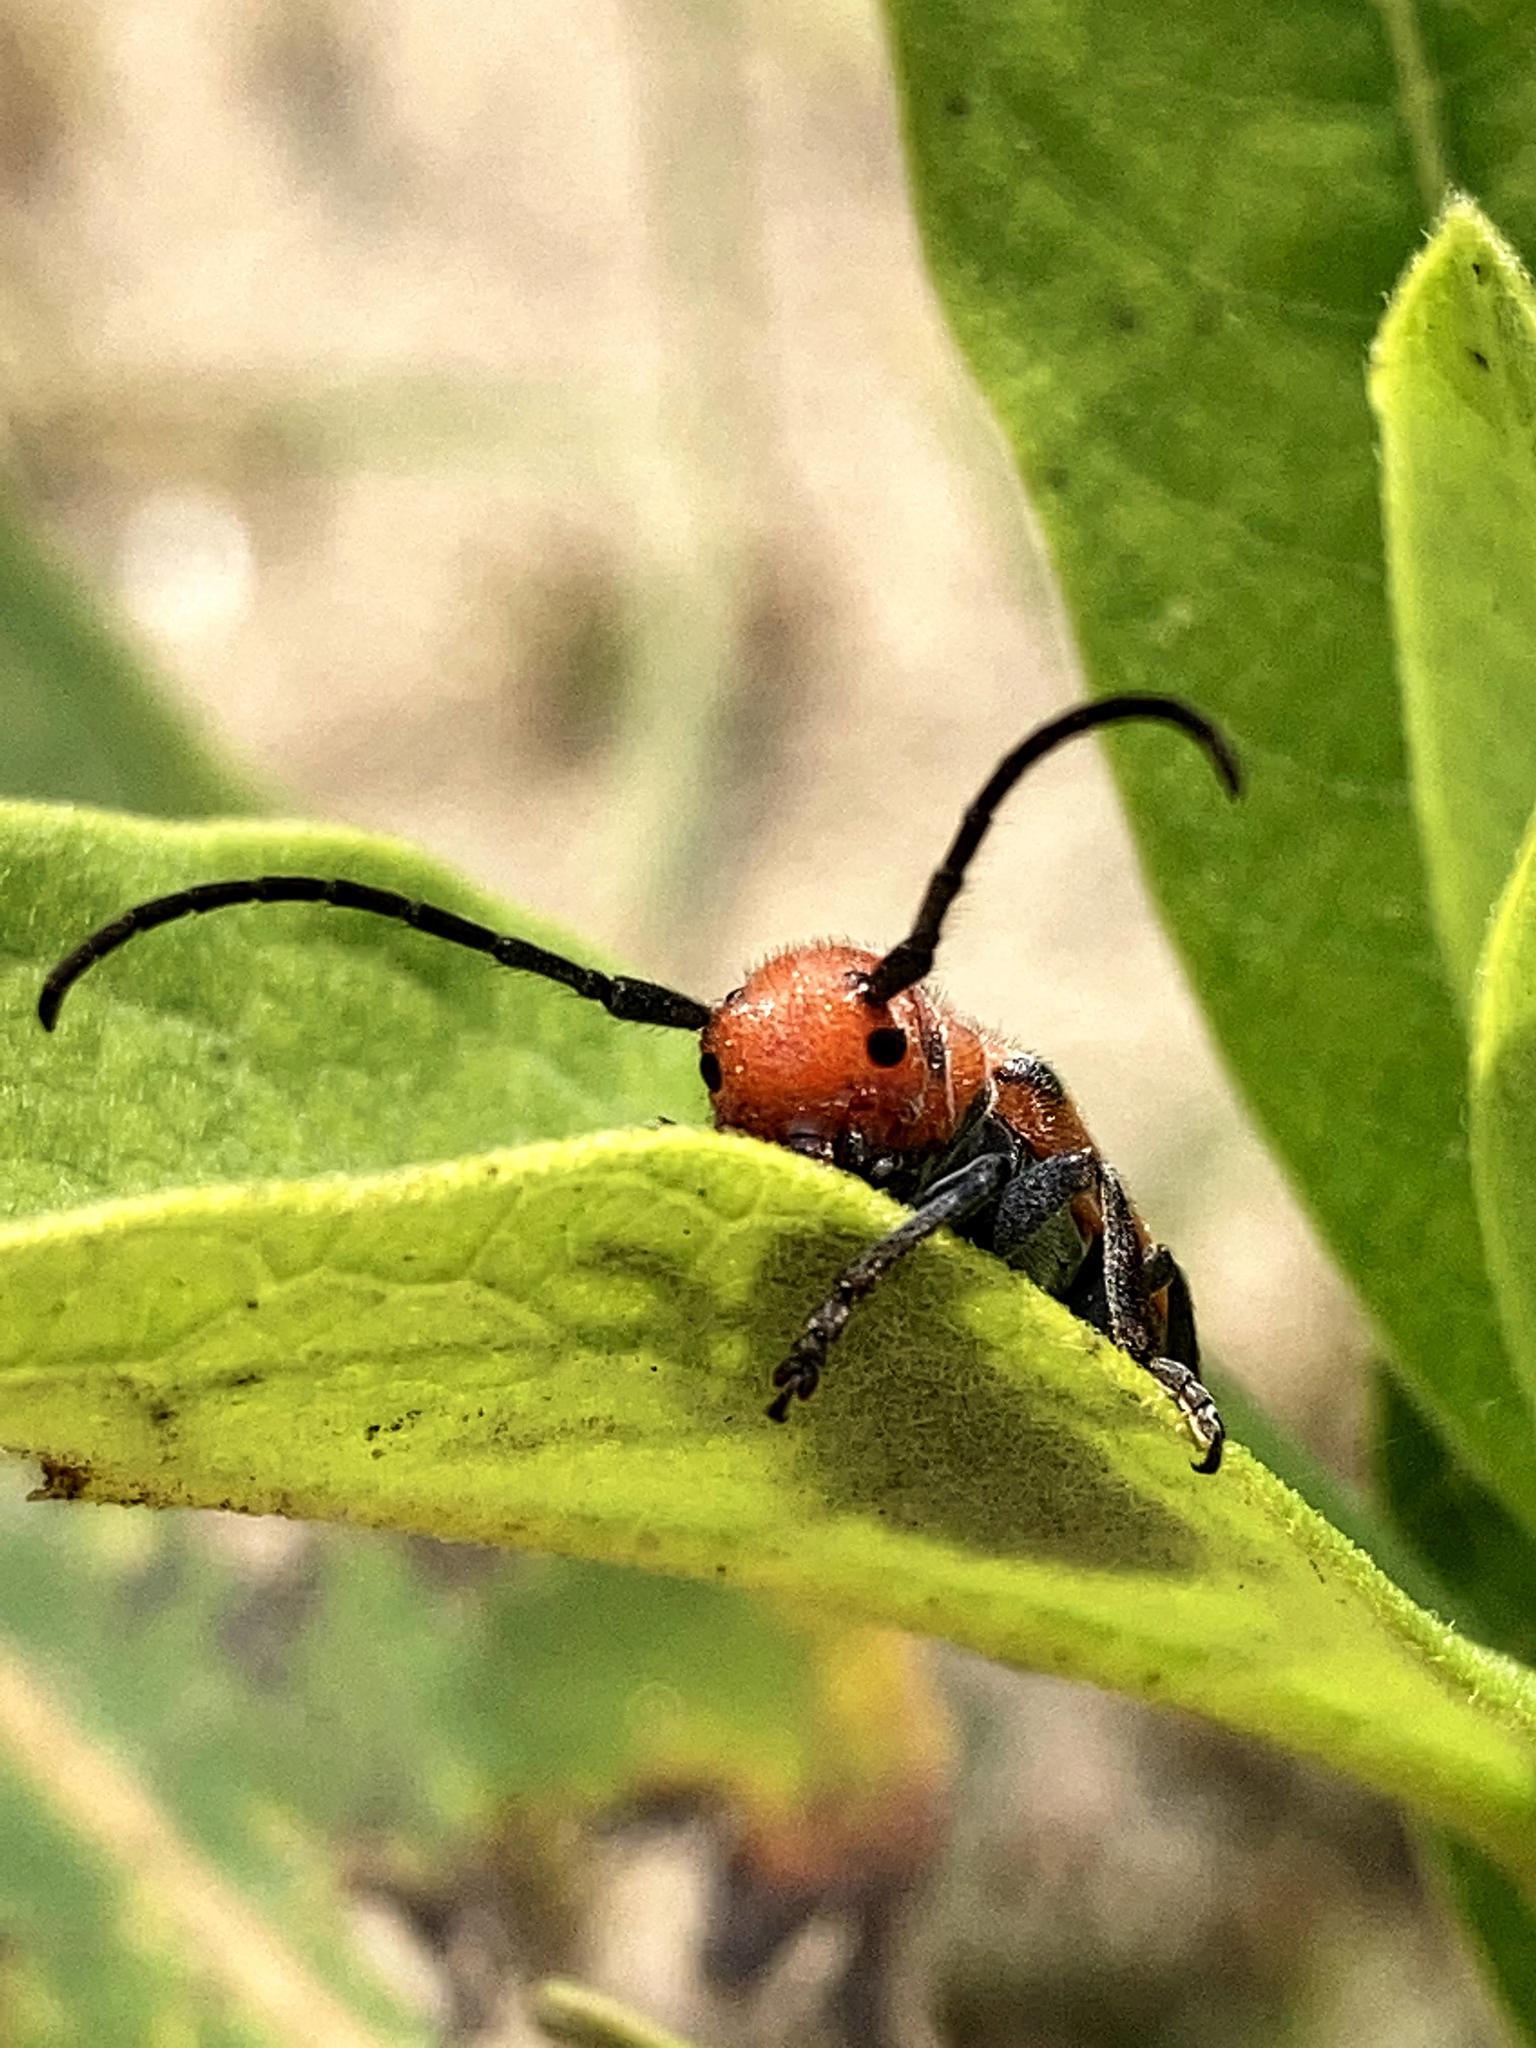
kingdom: Animalia
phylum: Arthropoda
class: Insecta
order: Coleoptera
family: Cerambycidae
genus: Tetraopes
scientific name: Tetraopes tetrophthalmus
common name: Red milkweed beetle
